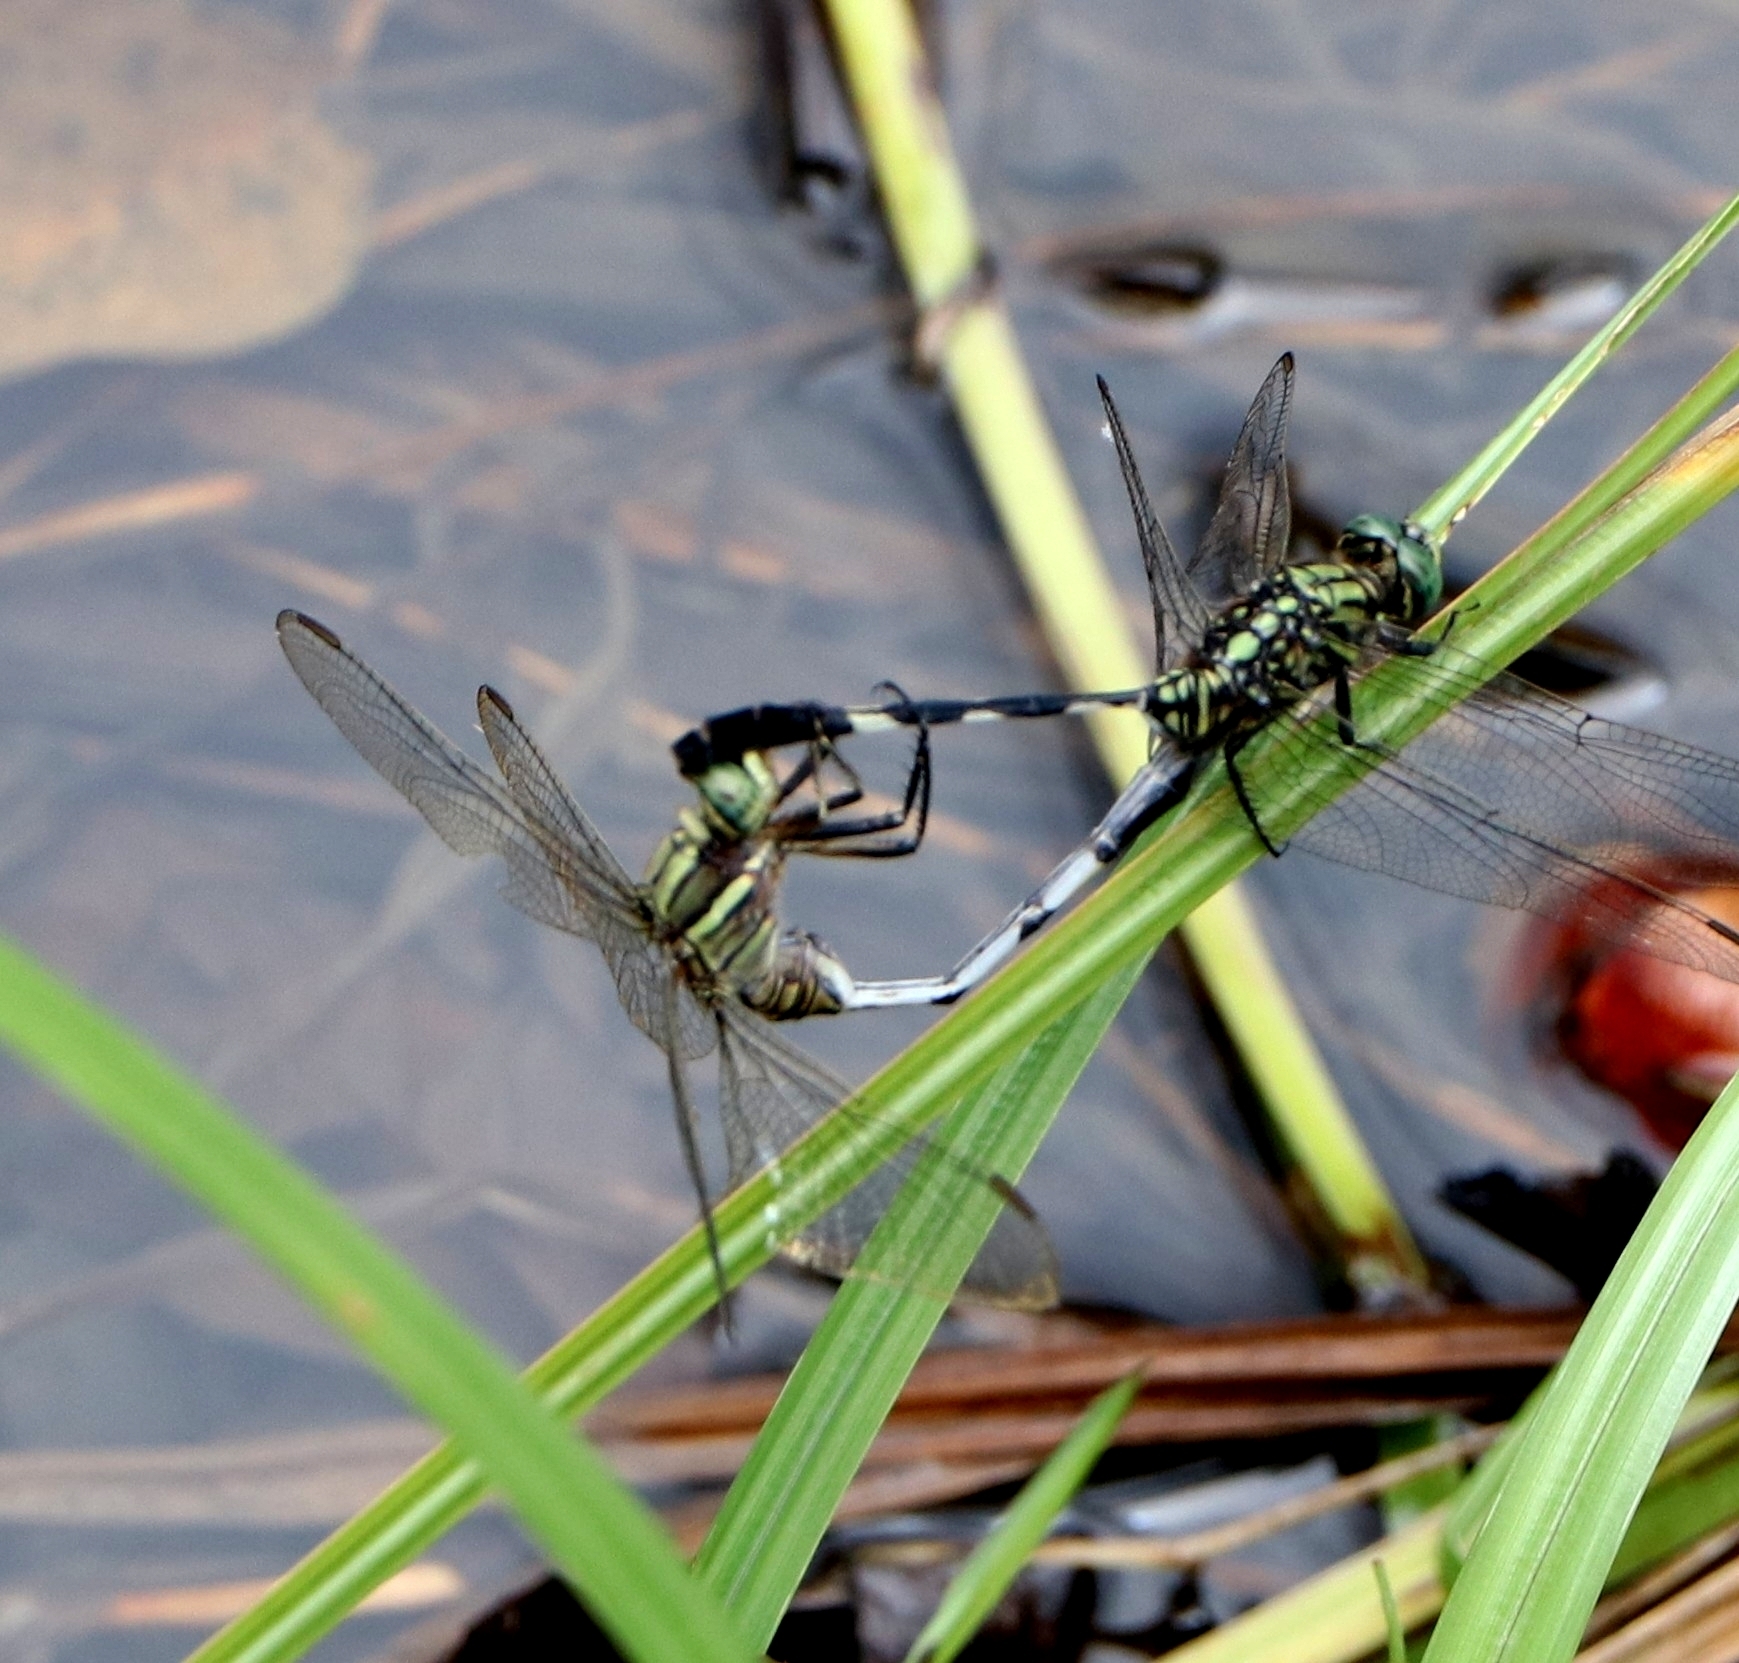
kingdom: Animalia
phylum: Arthropoda
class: Insecta
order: Odonata
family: Libellulidae
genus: Orthetrum
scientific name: Orthetrum sabina
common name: Slender skimmer
